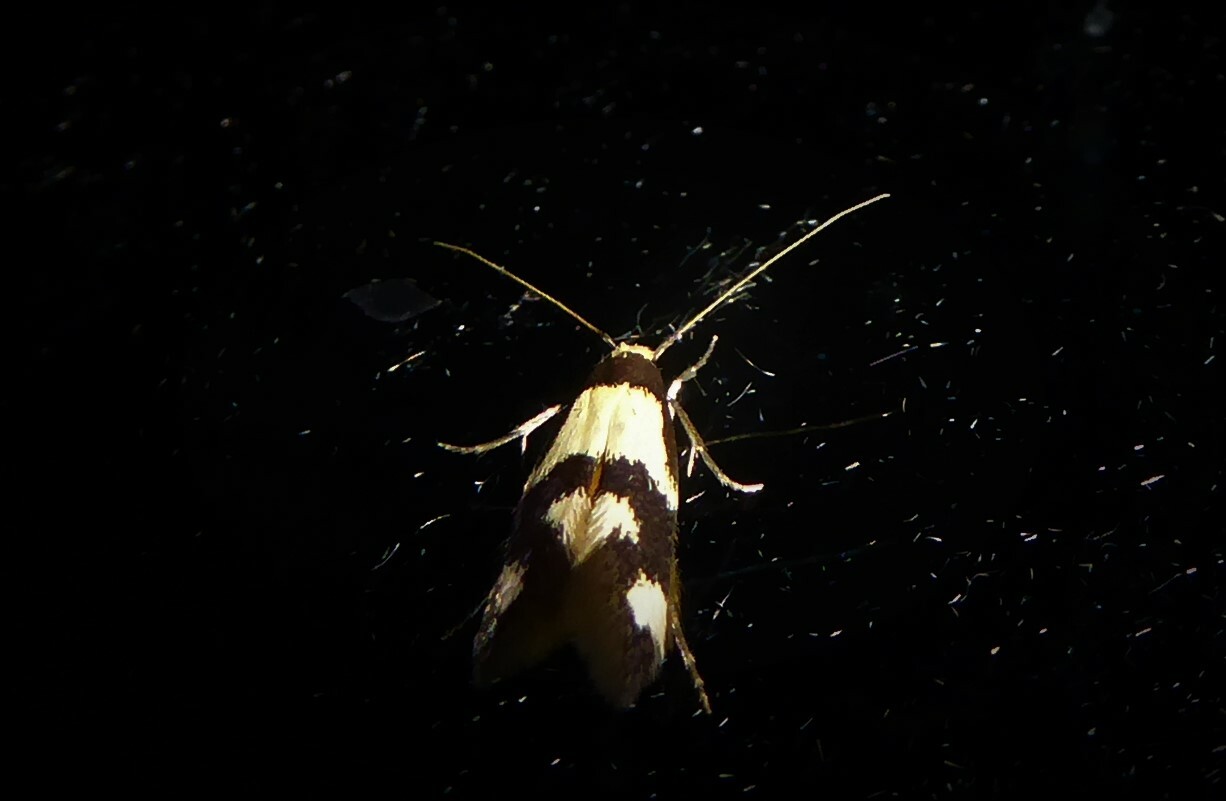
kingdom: Animalia
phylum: Arthropoda
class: Insecta
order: Lepidoptera
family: Tineidae
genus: Opogona
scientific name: Opogona comptella
